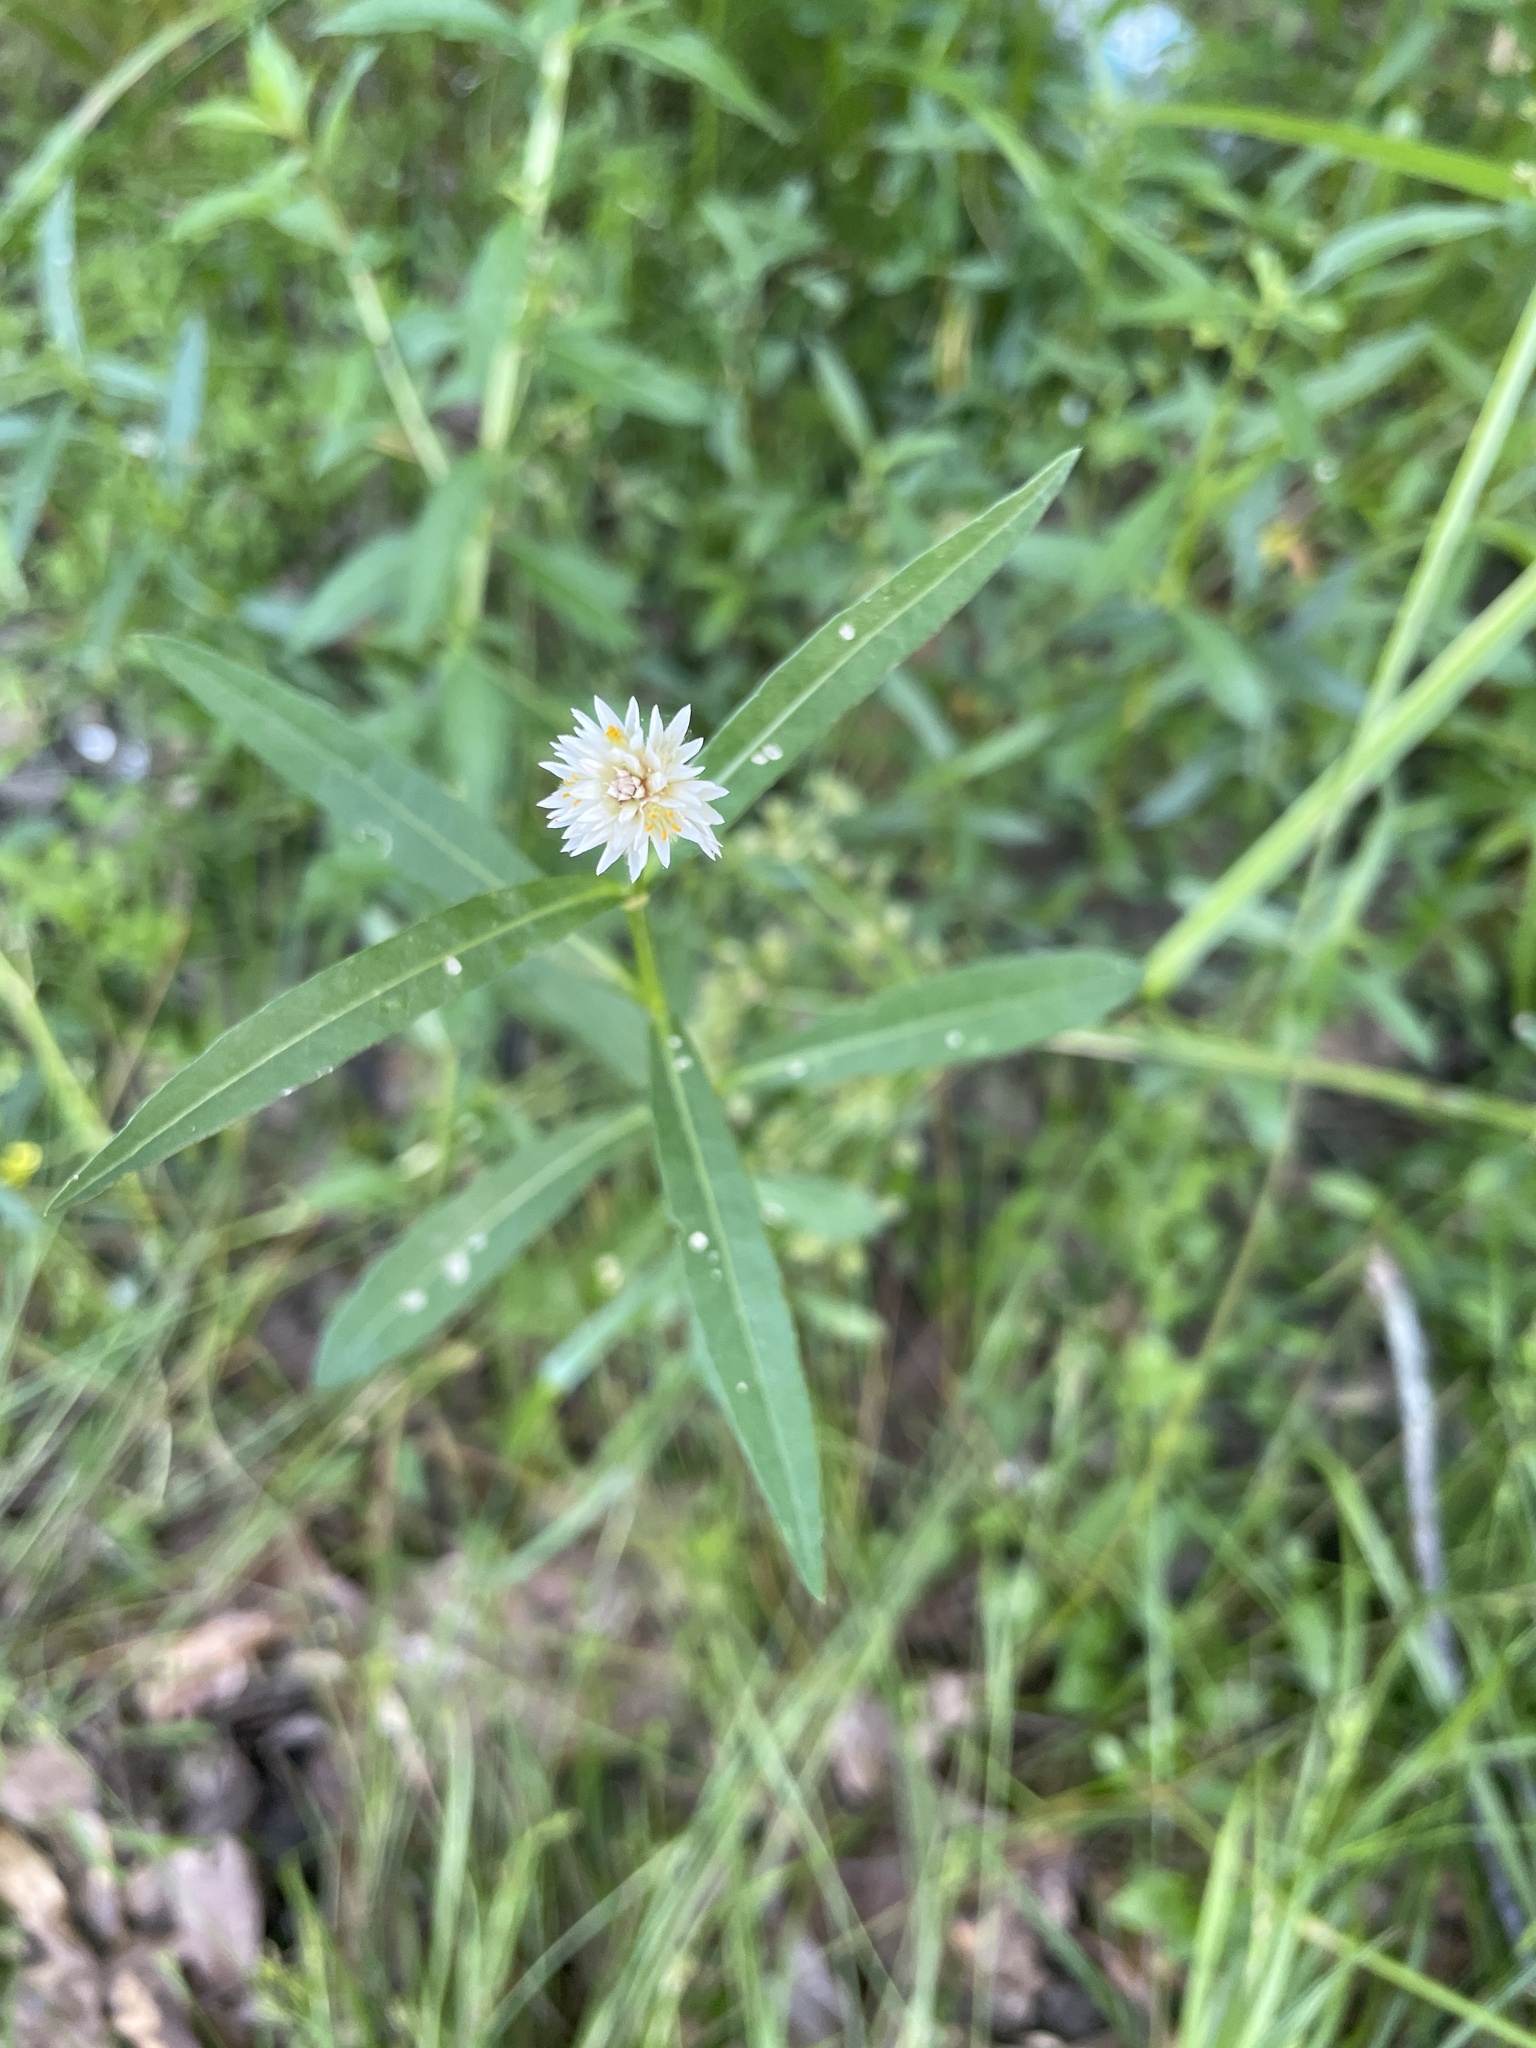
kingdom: Plantae
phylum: Tracheophyta
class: Magnoliopsida
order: Caryophyllales
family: Amaranthaceae
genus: Alternanthera
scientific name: Alternanthera philoxeroides
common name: Alligatorweed
